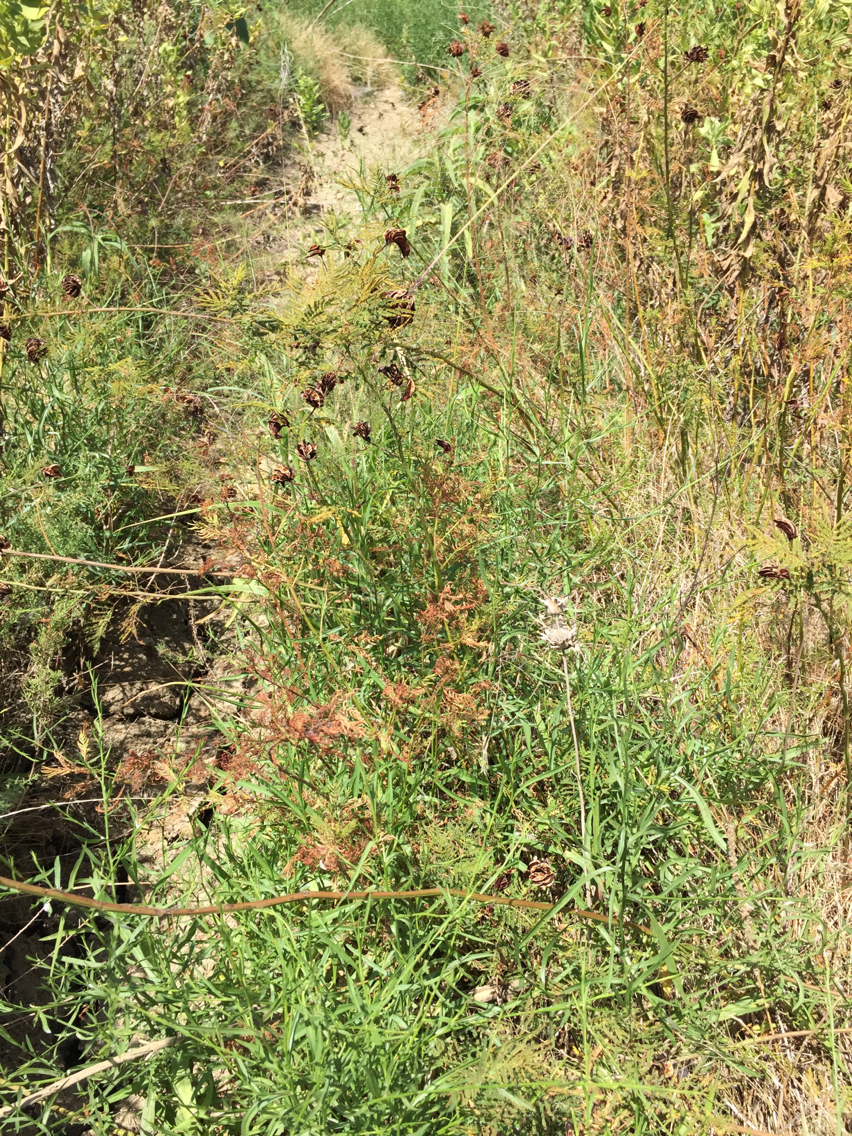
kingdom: Plantae
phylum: Tracheophyta
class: Magnoliopsida
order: Fabales
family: Fabaceae
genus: Desmanthus
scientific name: Desmanthus illinoensis
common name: Illinois bundle-flower
